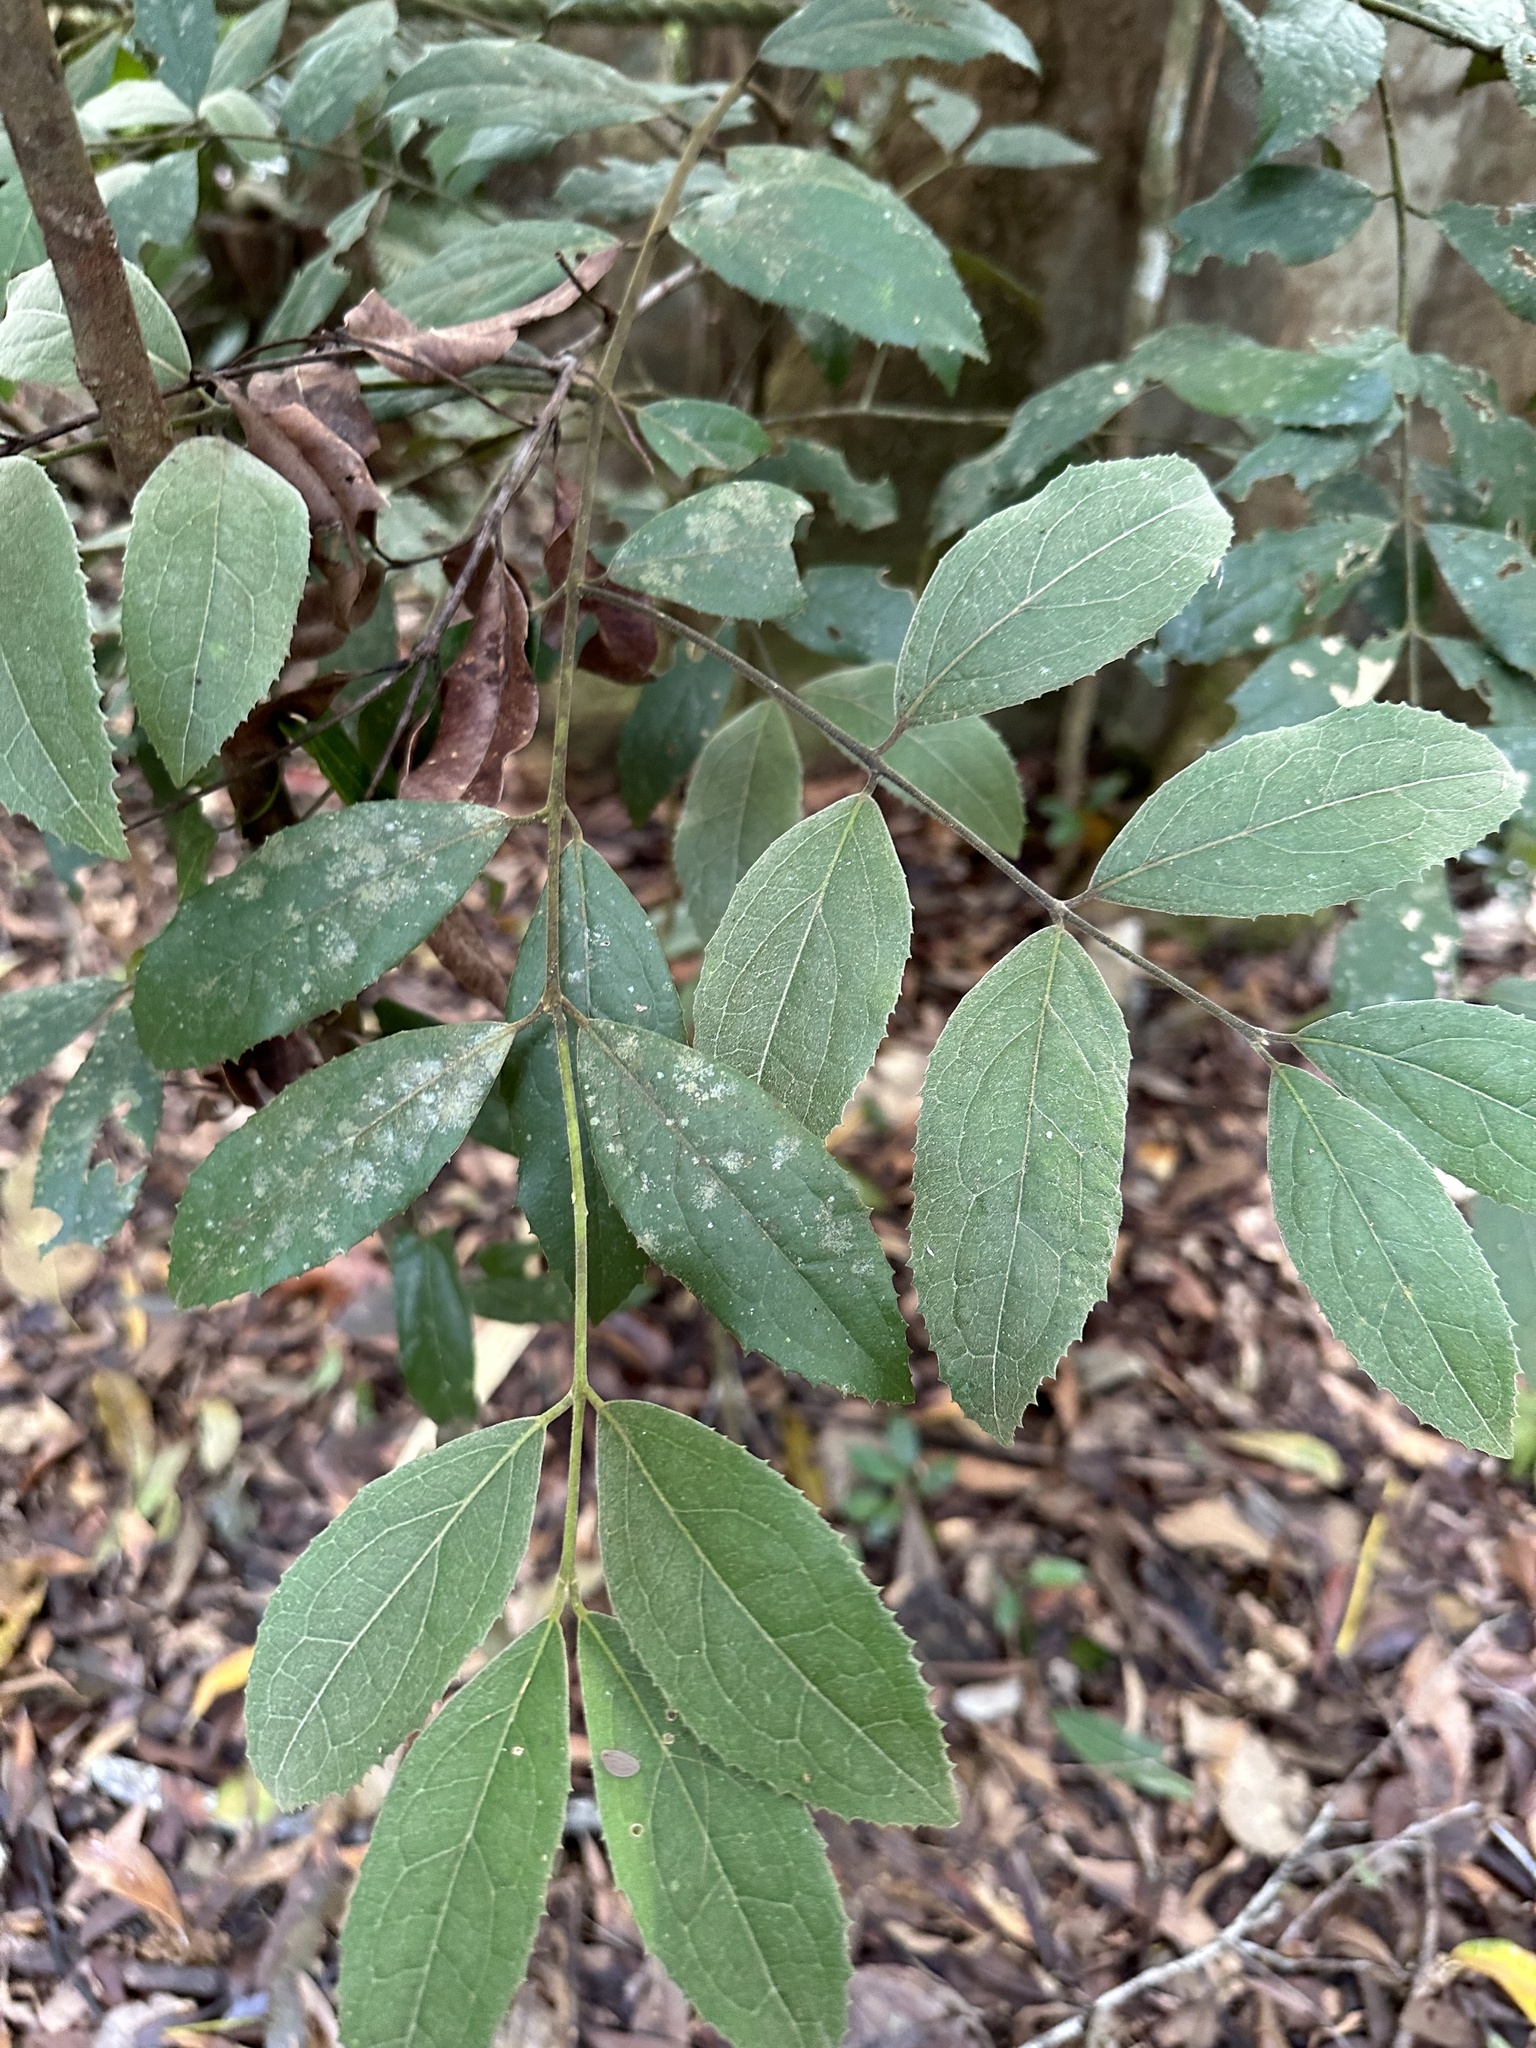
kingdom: Plantae
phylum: Tracheophyta
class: Magnoliopsida
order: Laurales
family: Monimiaceae
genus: Wilkiea
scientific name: Wilkiea pubescens
